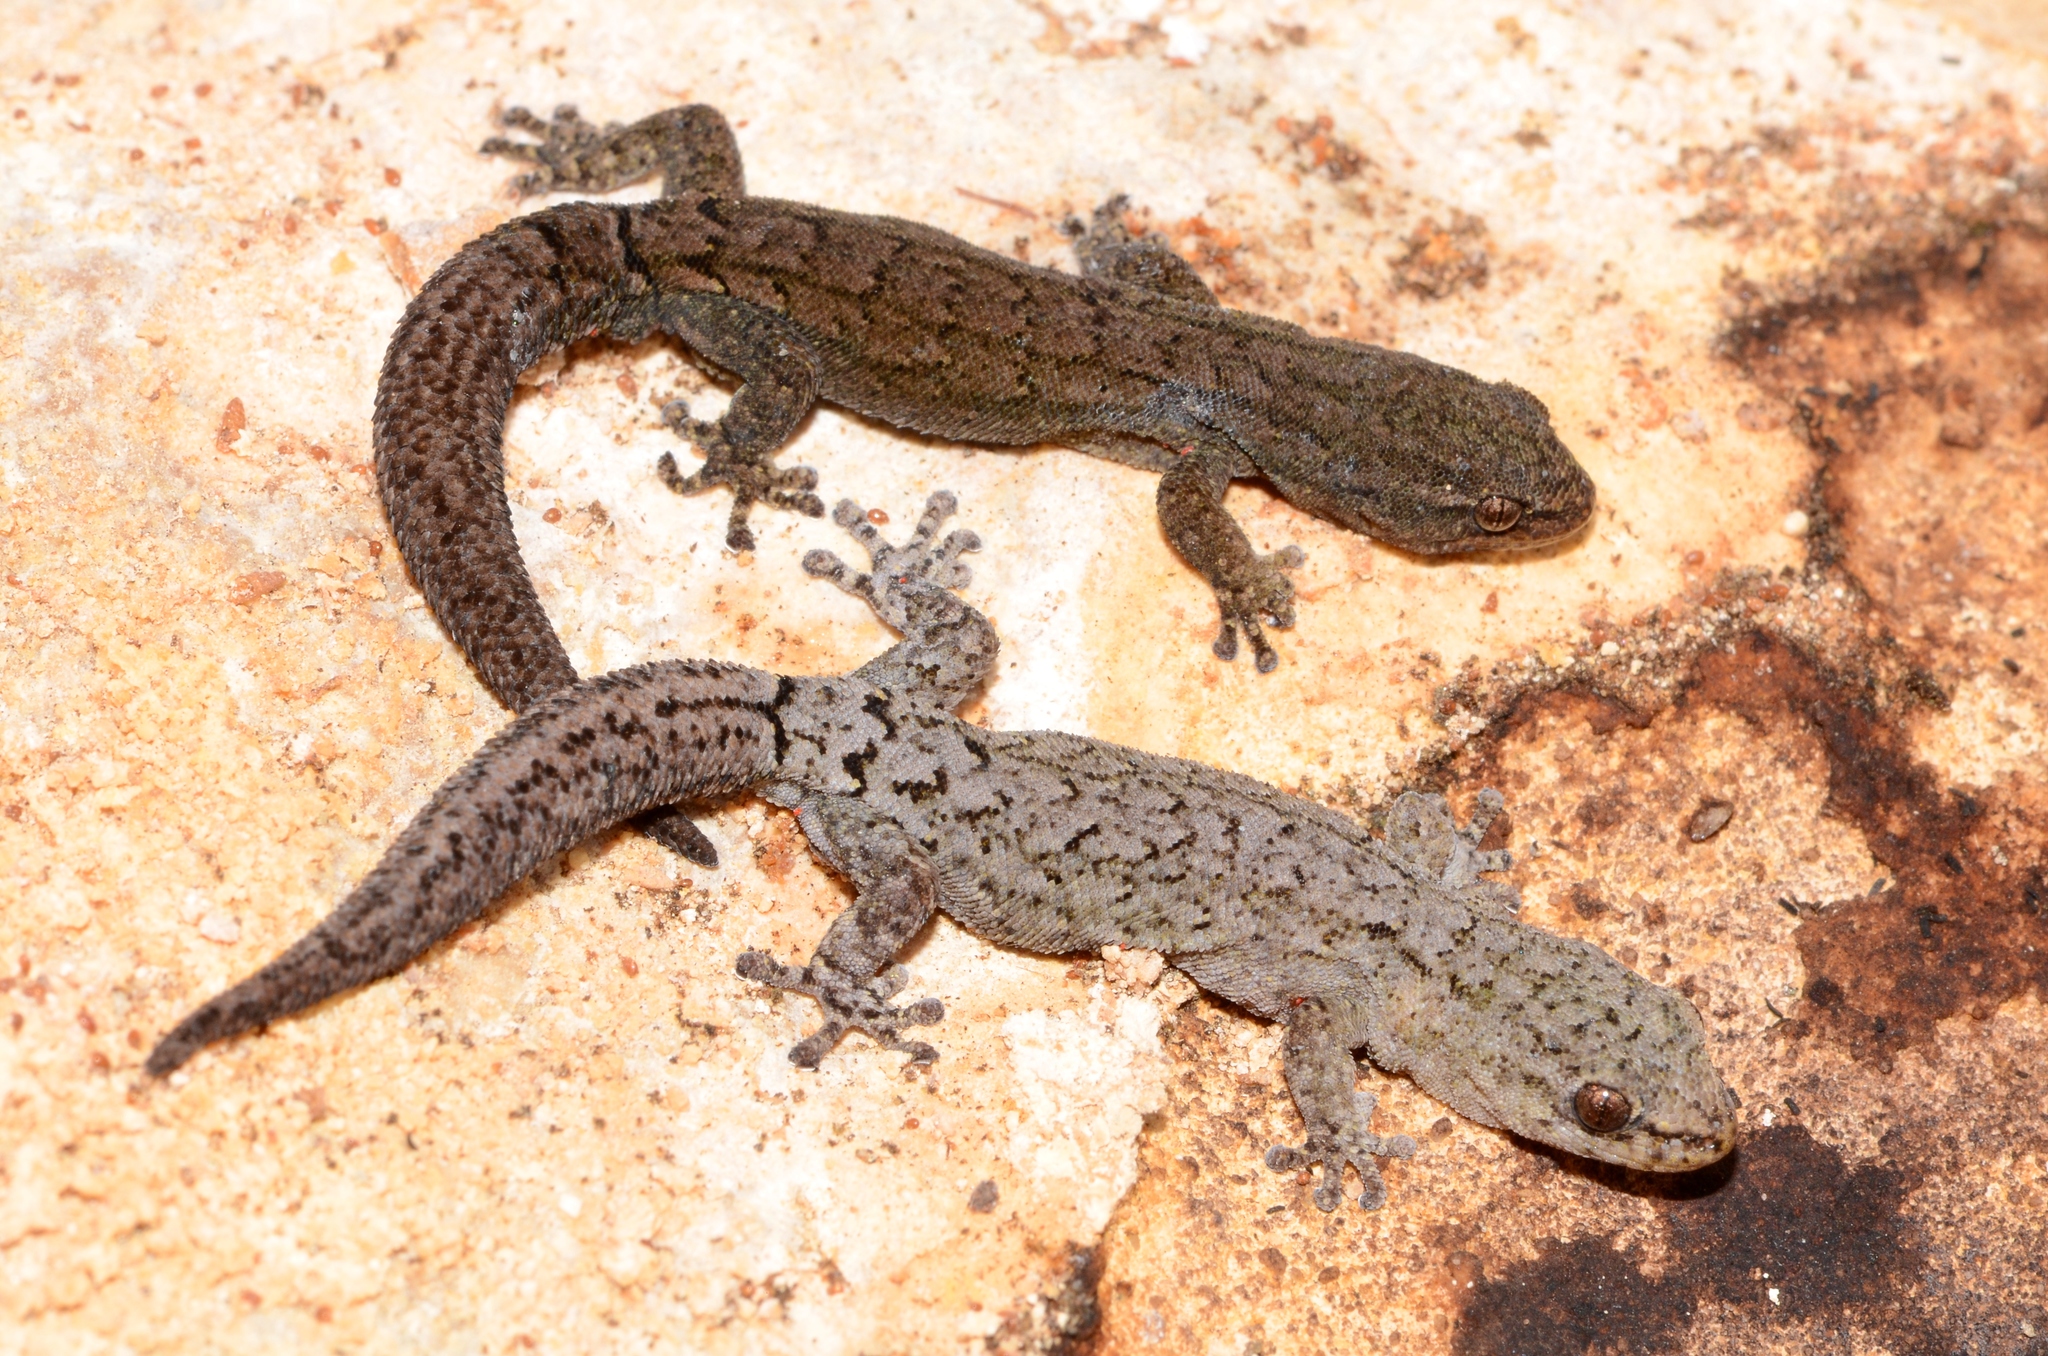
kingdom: Animalia
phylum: Chordata
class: Squamata
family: Gekkonidae
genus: Goggia
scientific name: Goggia incognita
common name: Cryptic pygmy gecko
